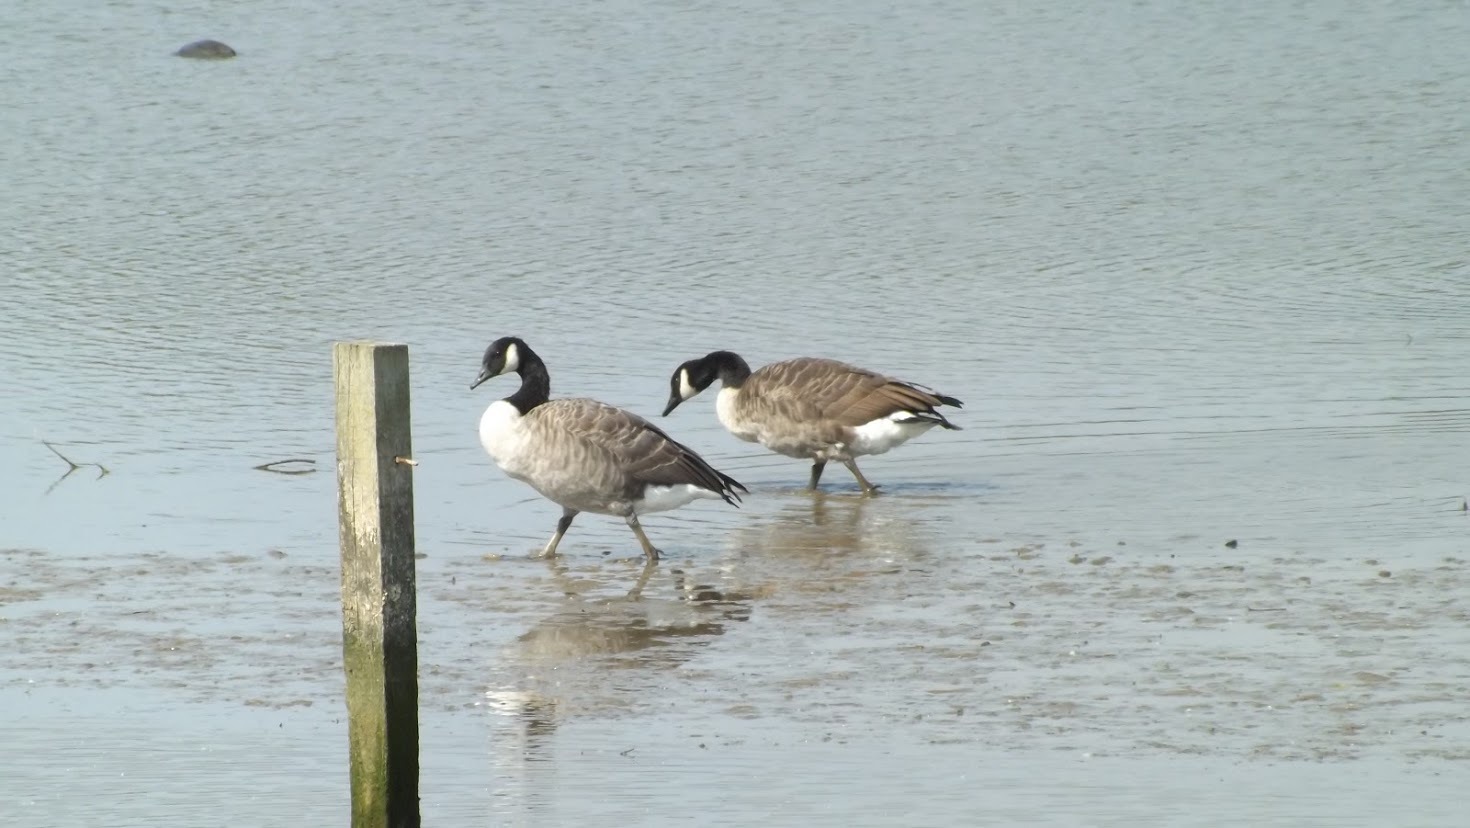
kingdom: Animalia
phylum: Chordata
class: Aves
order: Anseriformes
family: Anatidae
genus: Branta
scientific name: Branta canadensis
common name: Canada goose
